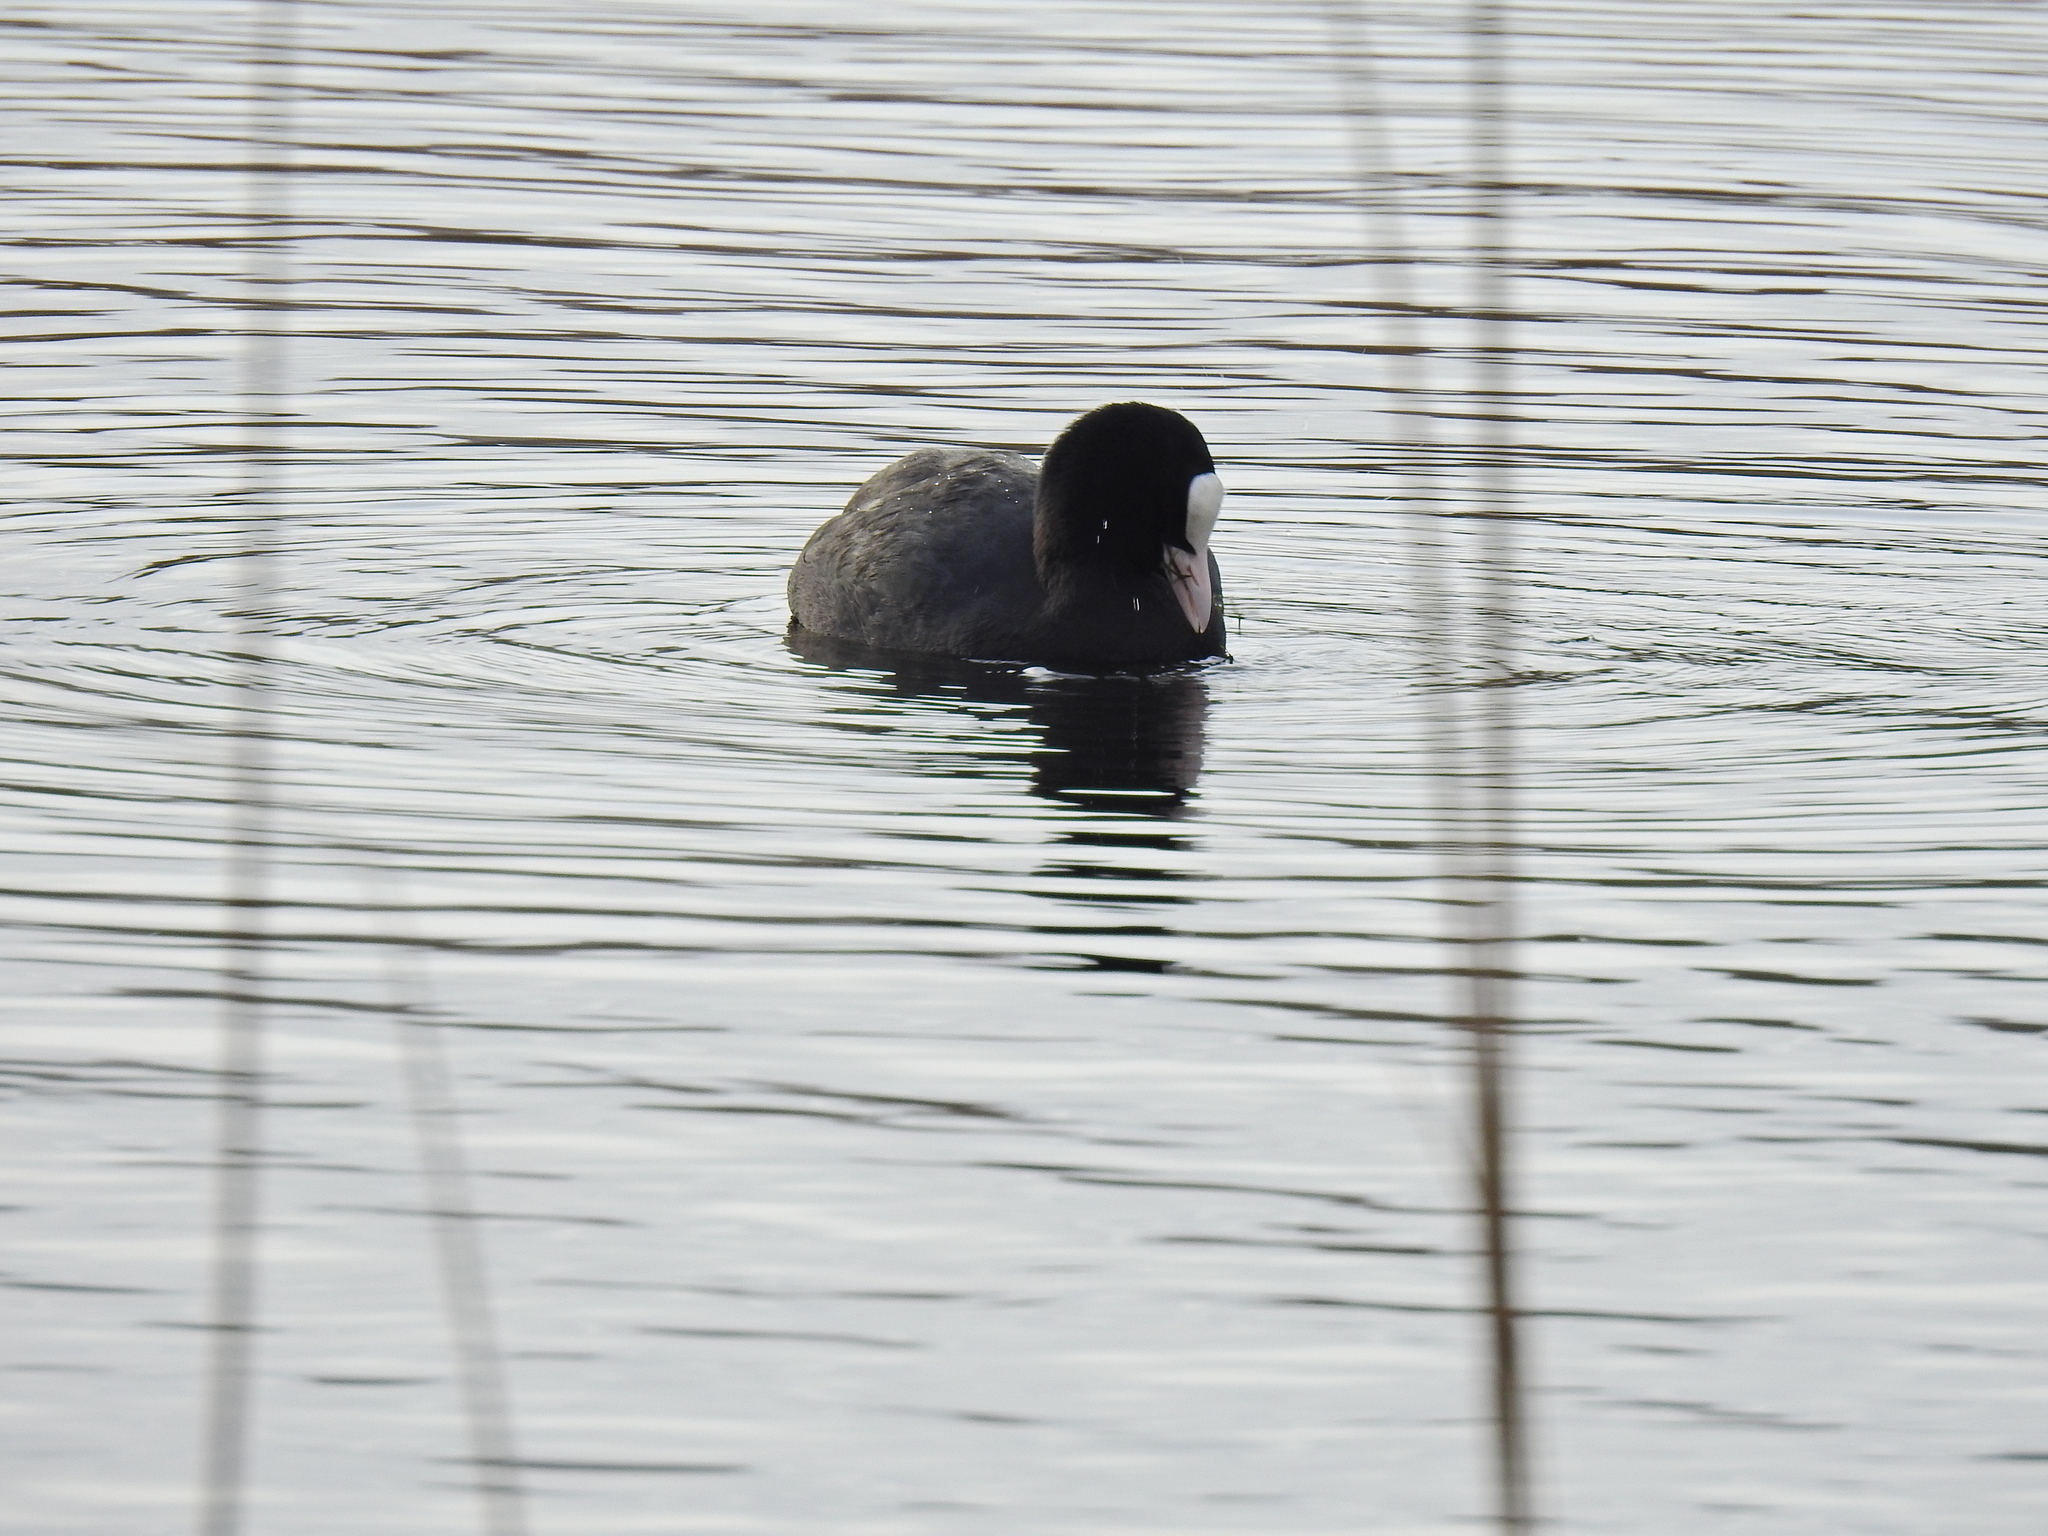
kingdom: Animalia
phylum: Chordata
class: Aves
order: Gruiformes
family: Rallidae
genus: Fulica
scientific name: Fulica atra
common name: Eurasian coot
